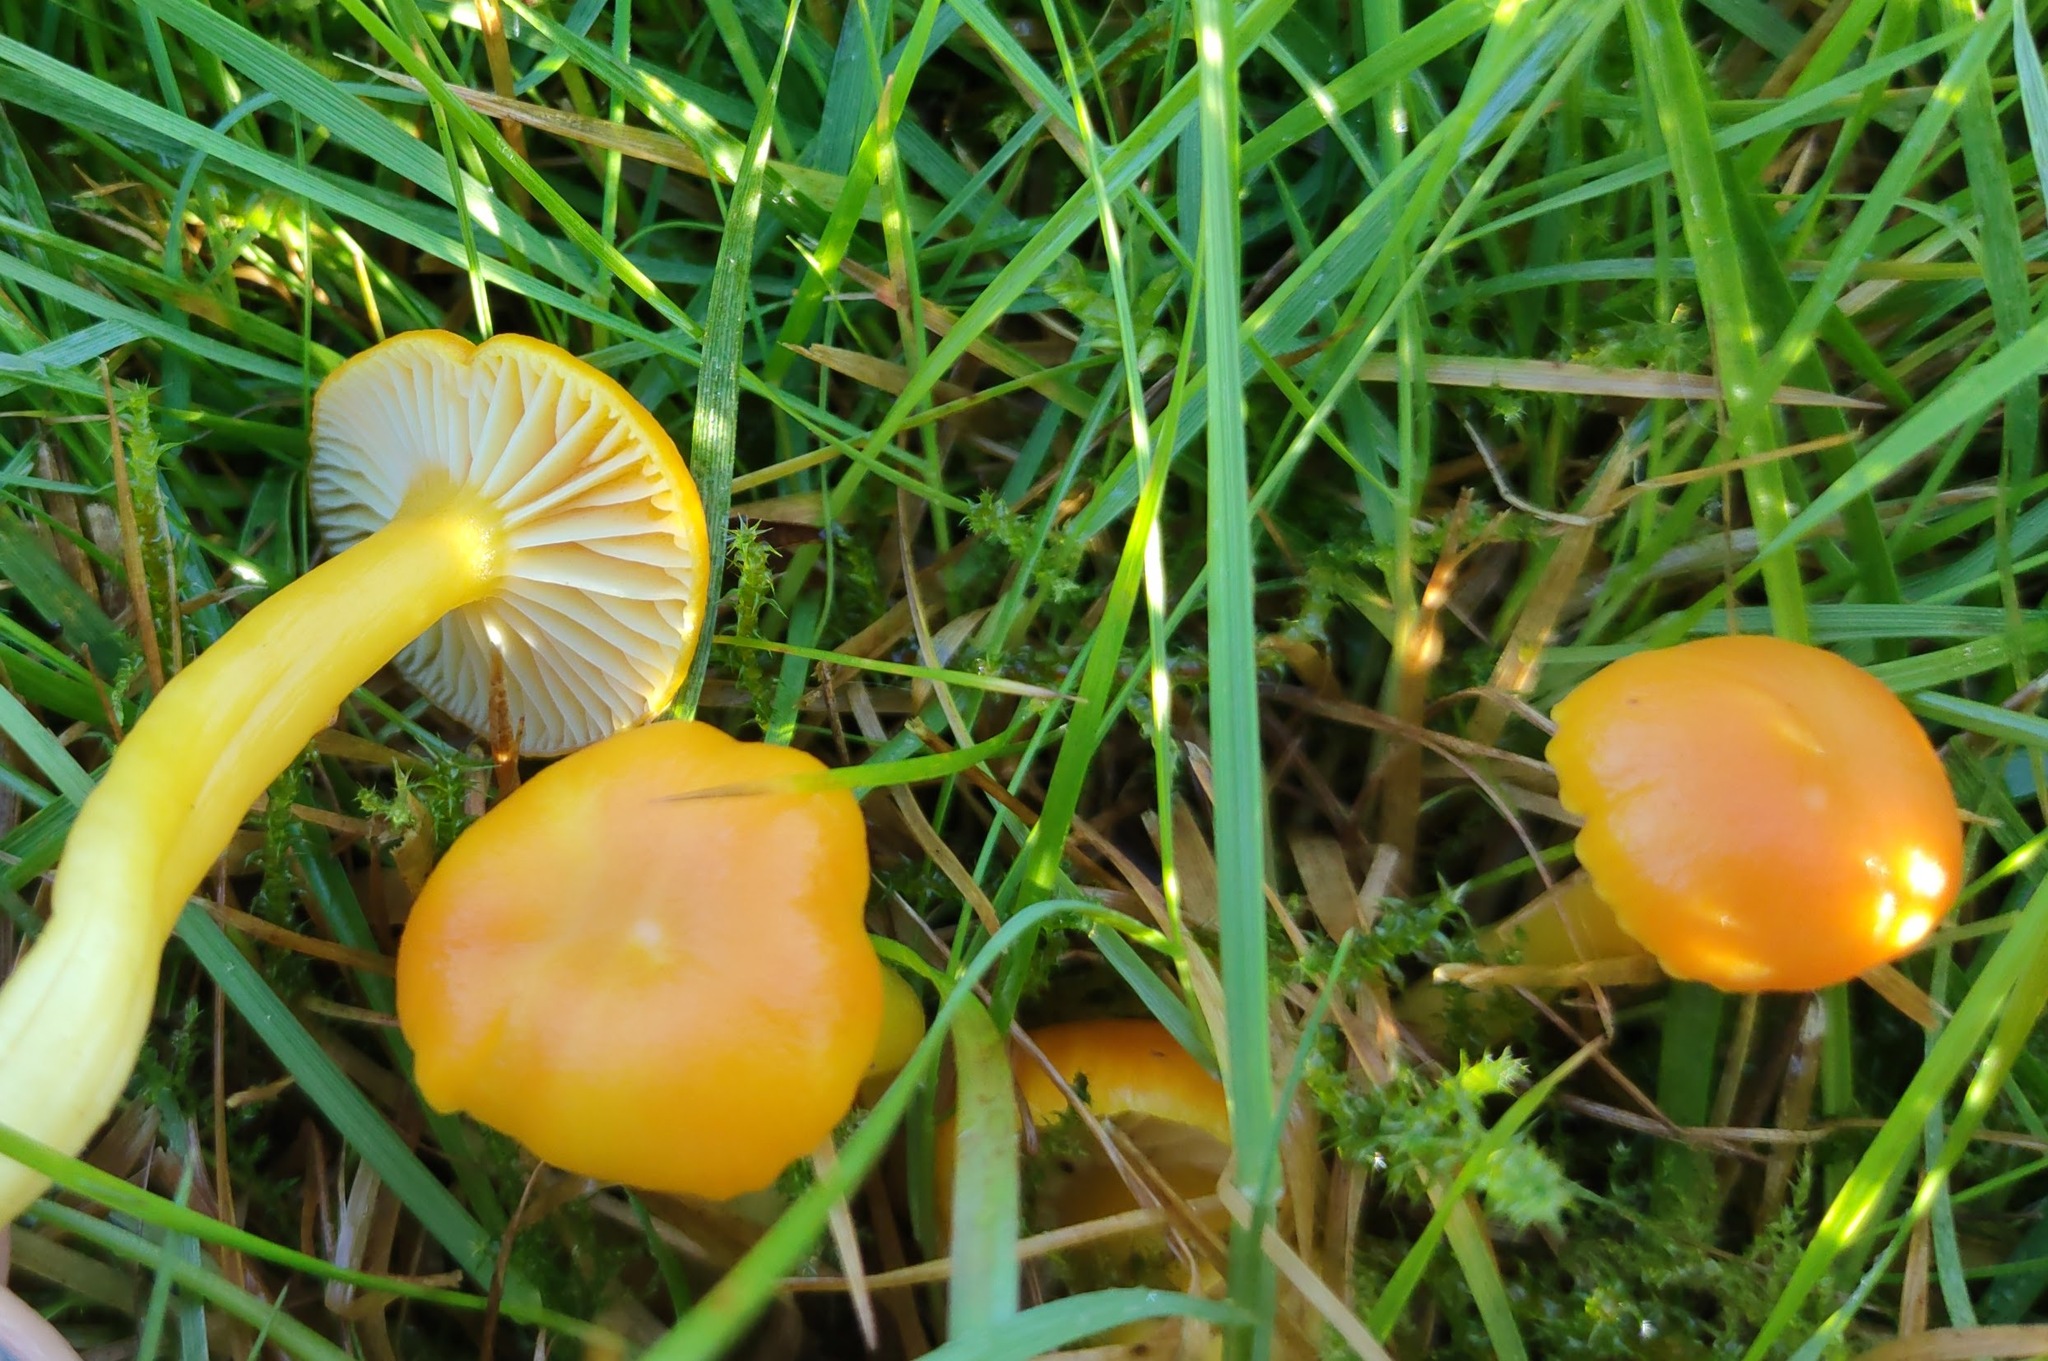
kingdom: Fungi
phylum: Basidiomycota
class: Agaricomycetes
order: Agaricales
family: Hygrophoraceae
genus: Hygrocybe
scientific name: Hygrocybe ceracea
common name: Butter waxcap
